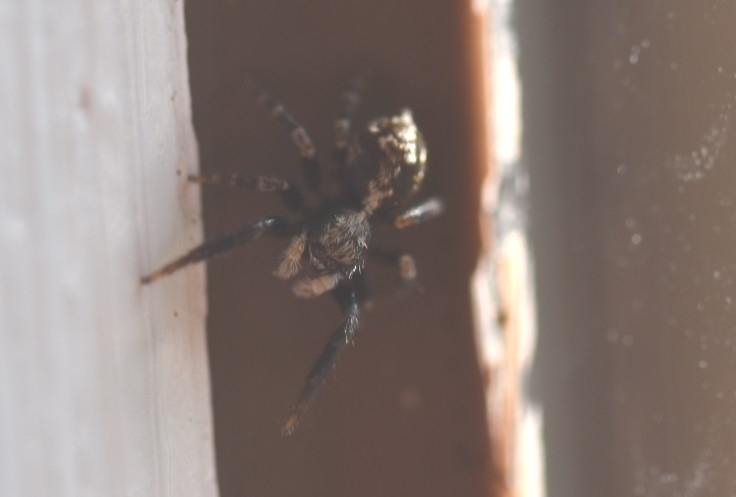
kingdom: Animalia
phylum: Arthropoda
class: Arachnida
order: Araneae
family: Salticidae
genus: Pseudeuophrys
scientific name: Pseudeuophrys lanigera
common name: Jumping spider
